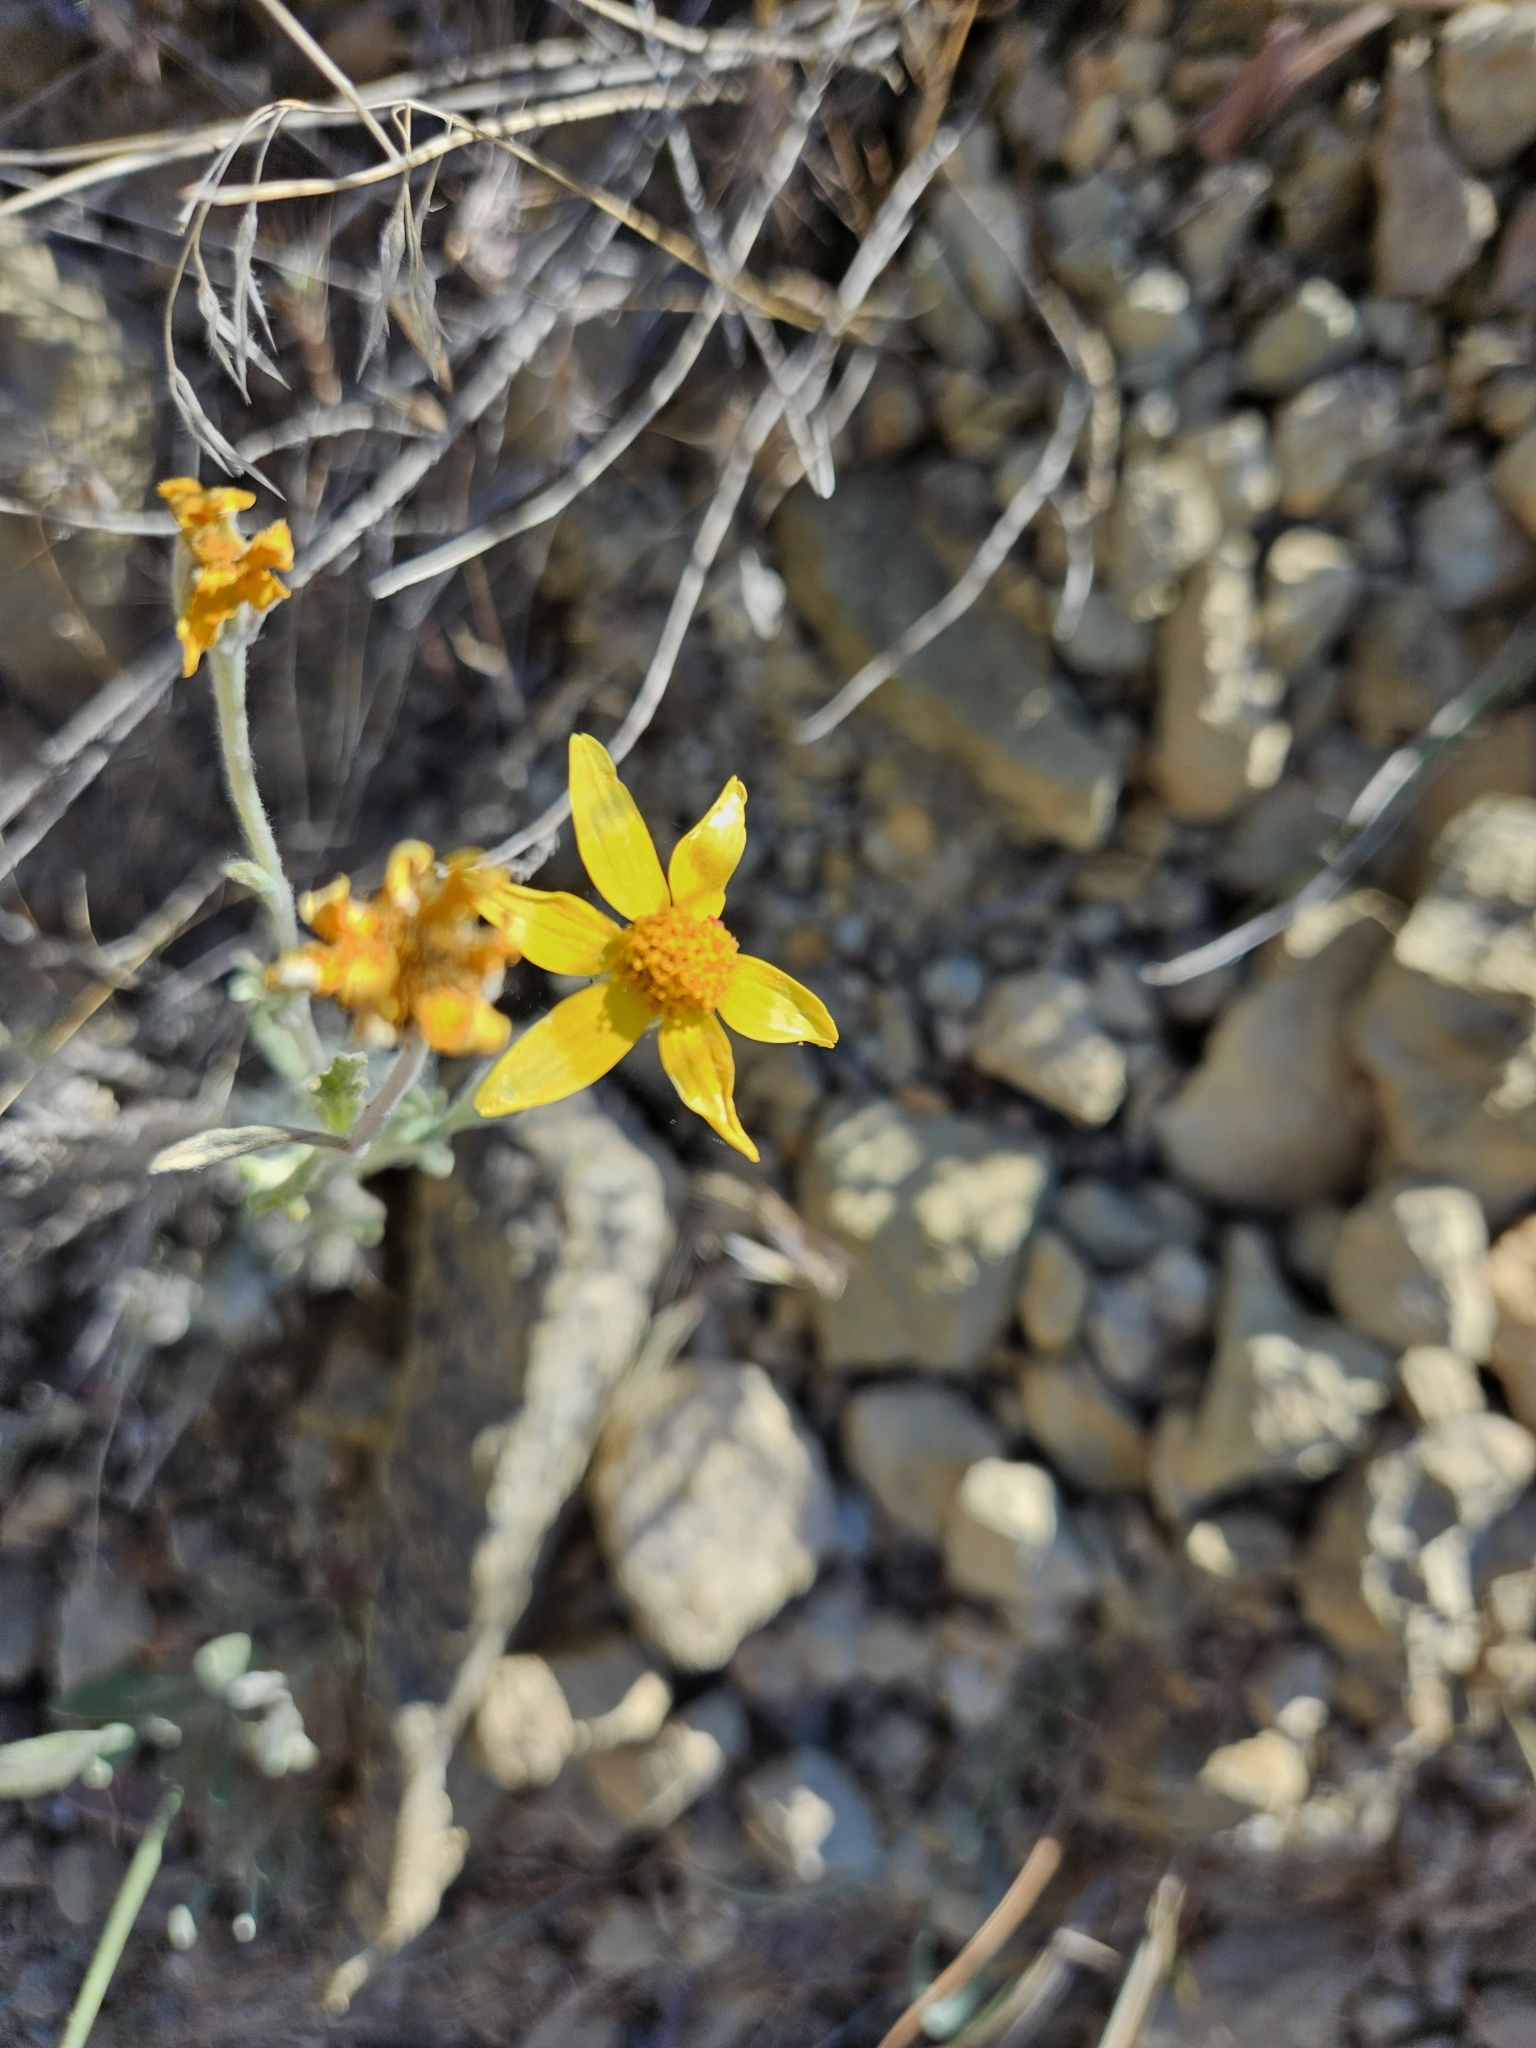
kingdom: Plantae
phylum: Tracheophyta
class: Magnoliopsida
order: Asterales
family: Asteraceae
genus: Eriophyllum
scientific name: Eriophyllum lanatum
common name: Common woolly-sunflower
